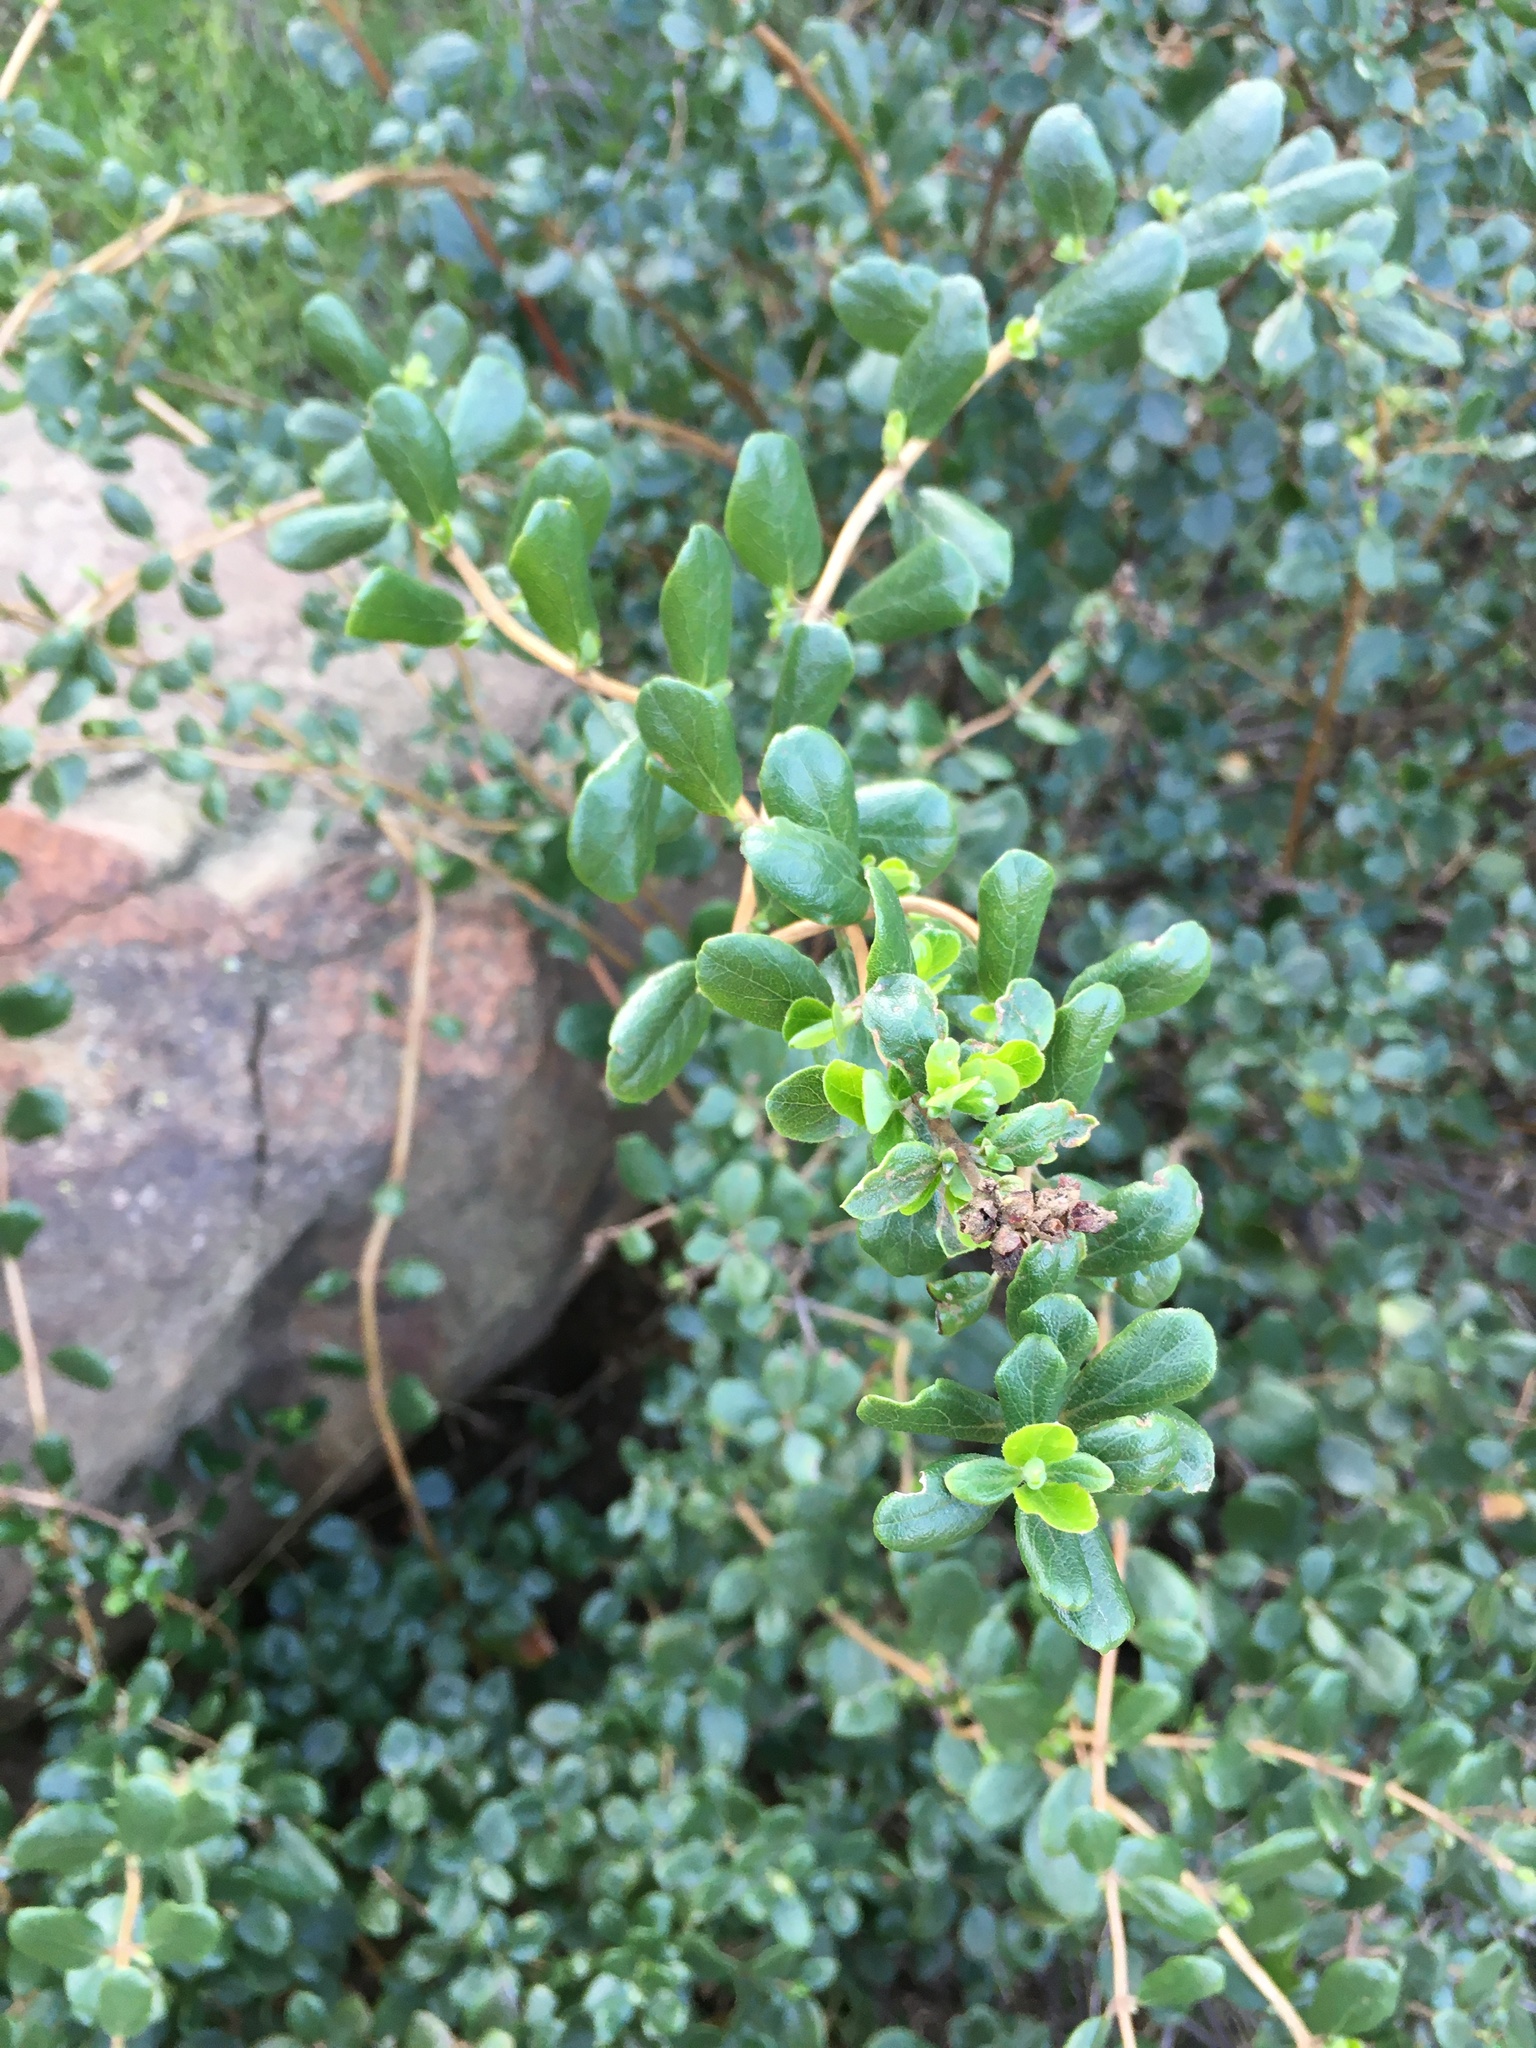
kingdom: Plantae
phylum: Tracheophyta
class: Magnoliopsida
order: Dipsacales
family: Caprifoliaceae
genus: Lonicera
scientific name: Lonicera subspicata
